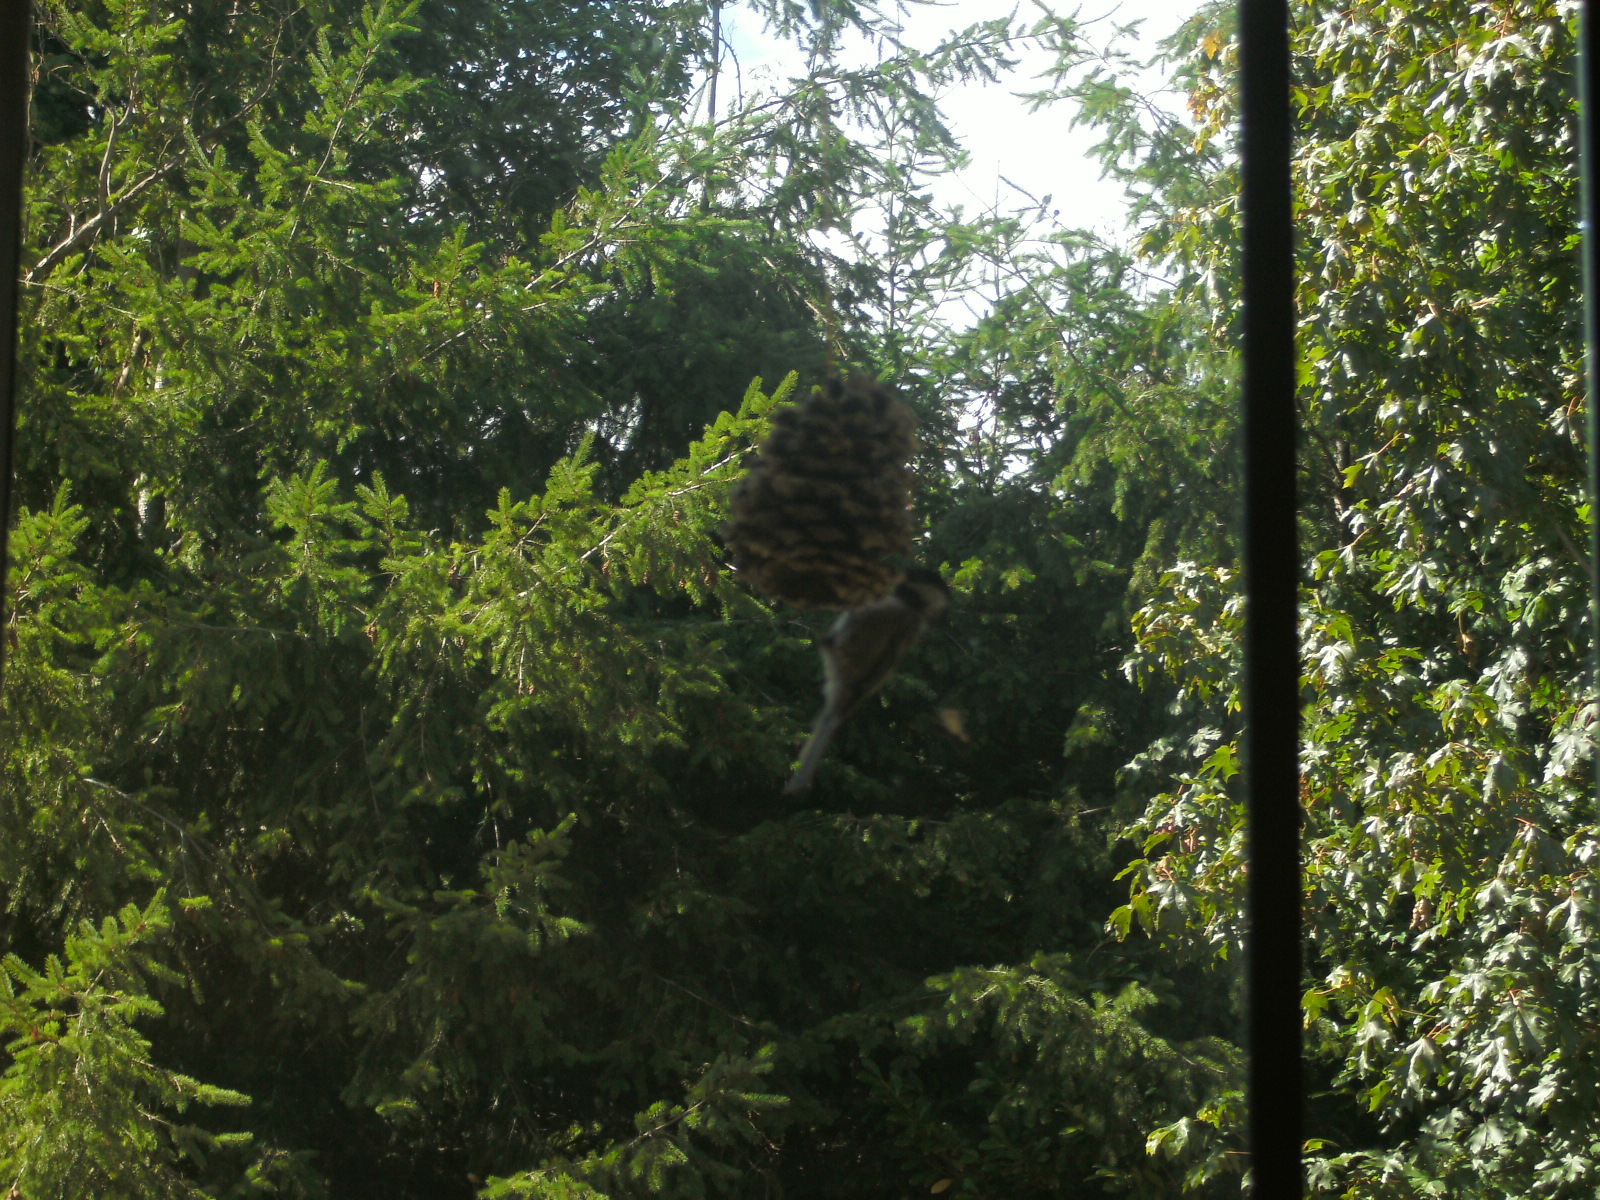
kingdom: Animalia
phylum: Chordata
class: Aves
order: Passeriformes
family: Paridae
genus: Poecile
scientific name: Poecile atricapillus
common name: Black-capped chickadee
